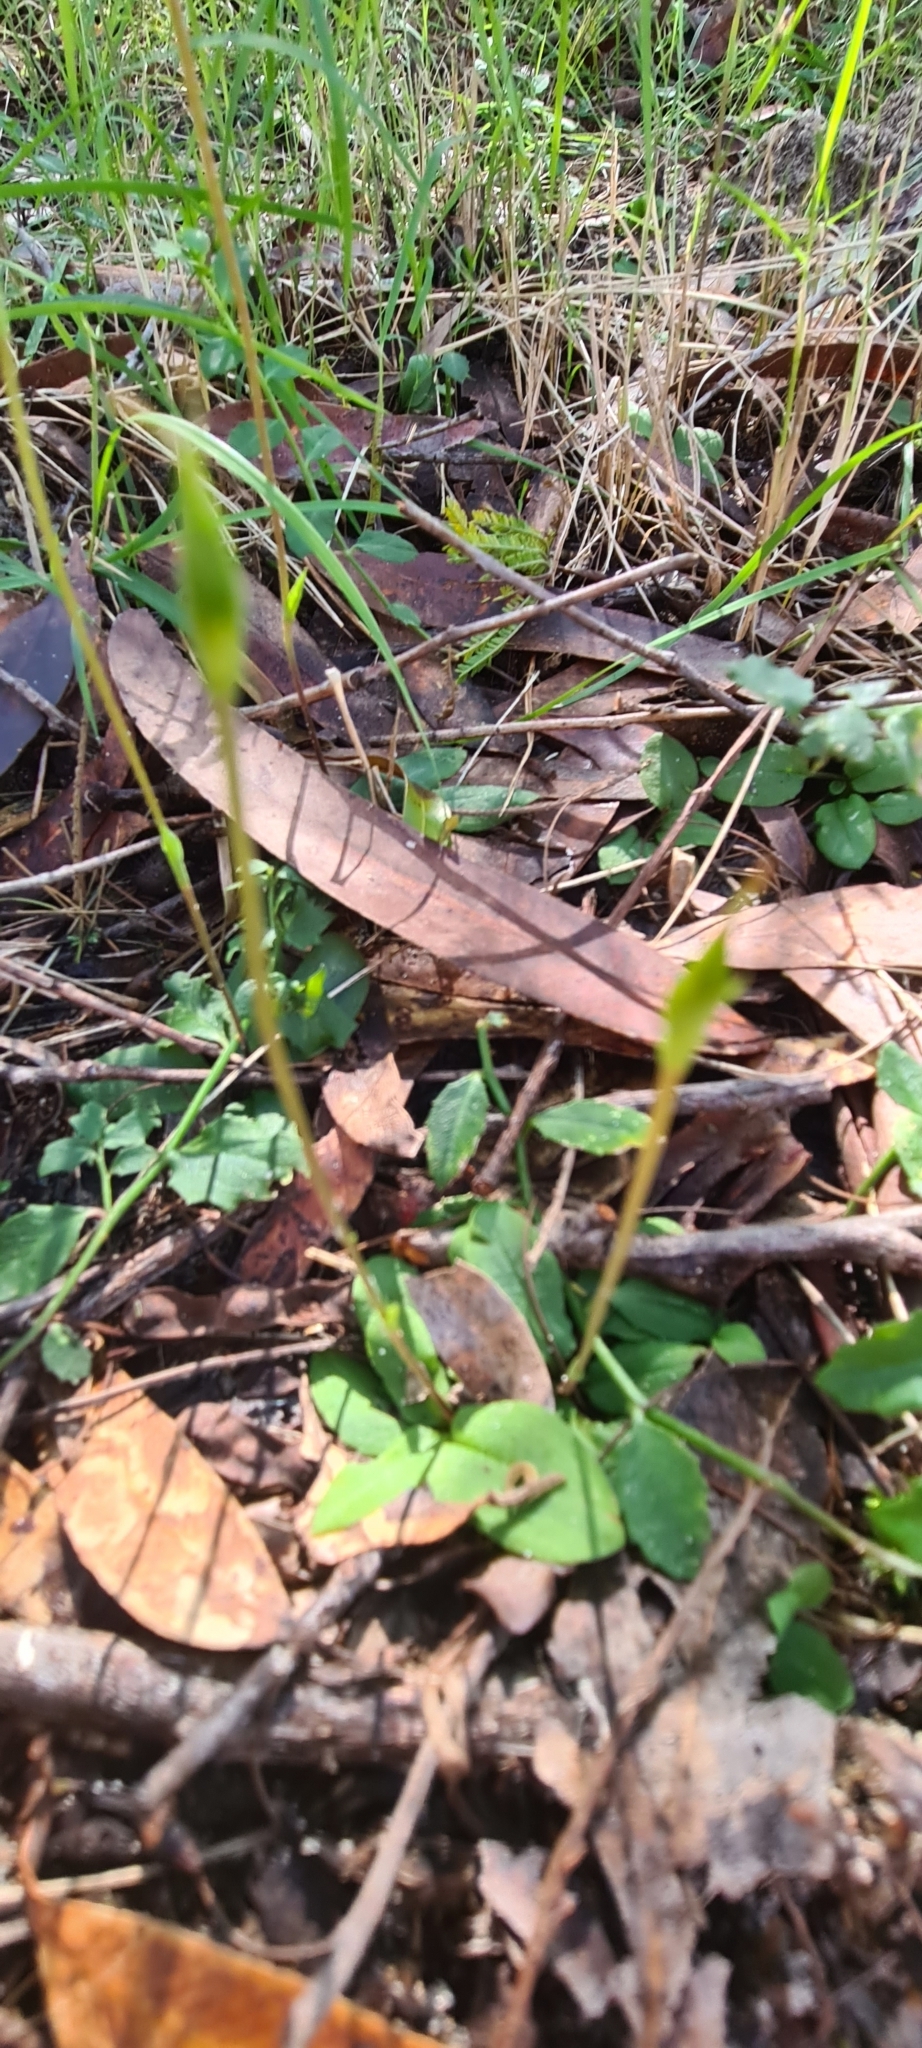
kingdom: Plantae
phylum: Tracheophyta
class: Liliopsida
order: Asparagales
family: Orchidaceae
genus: Pterostylis
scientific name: Pterostylis concinna
